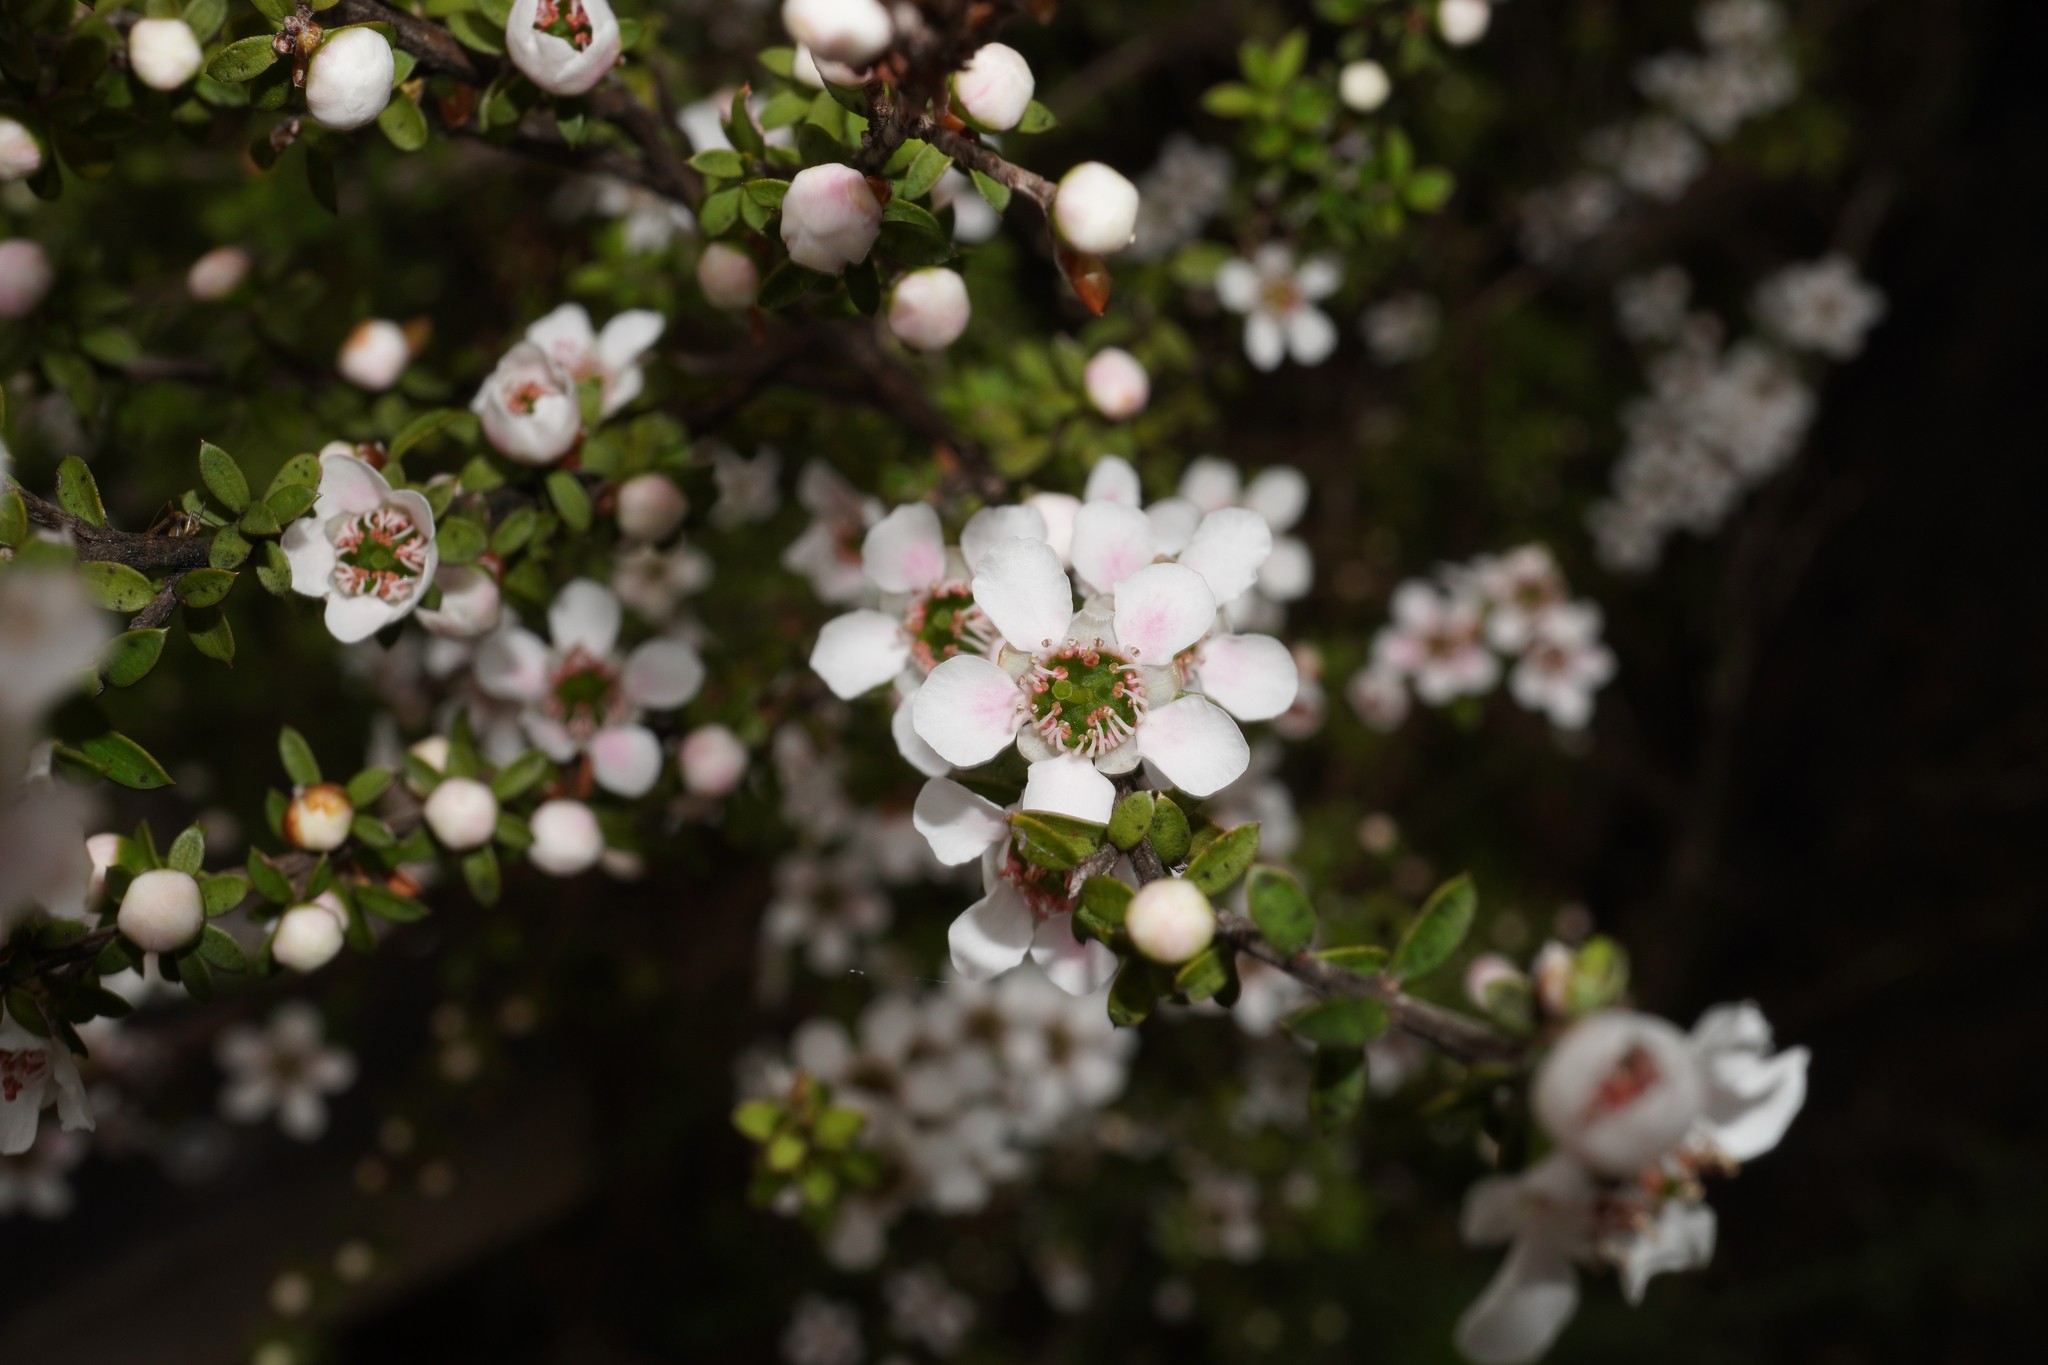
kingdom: Plantae
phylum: Tracheophyta
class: Magnoliopsida
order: Myrtales
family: Myrtaceae
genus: Leptospermum
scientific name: Leptospermum scoparium
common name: Broom tea-tree
